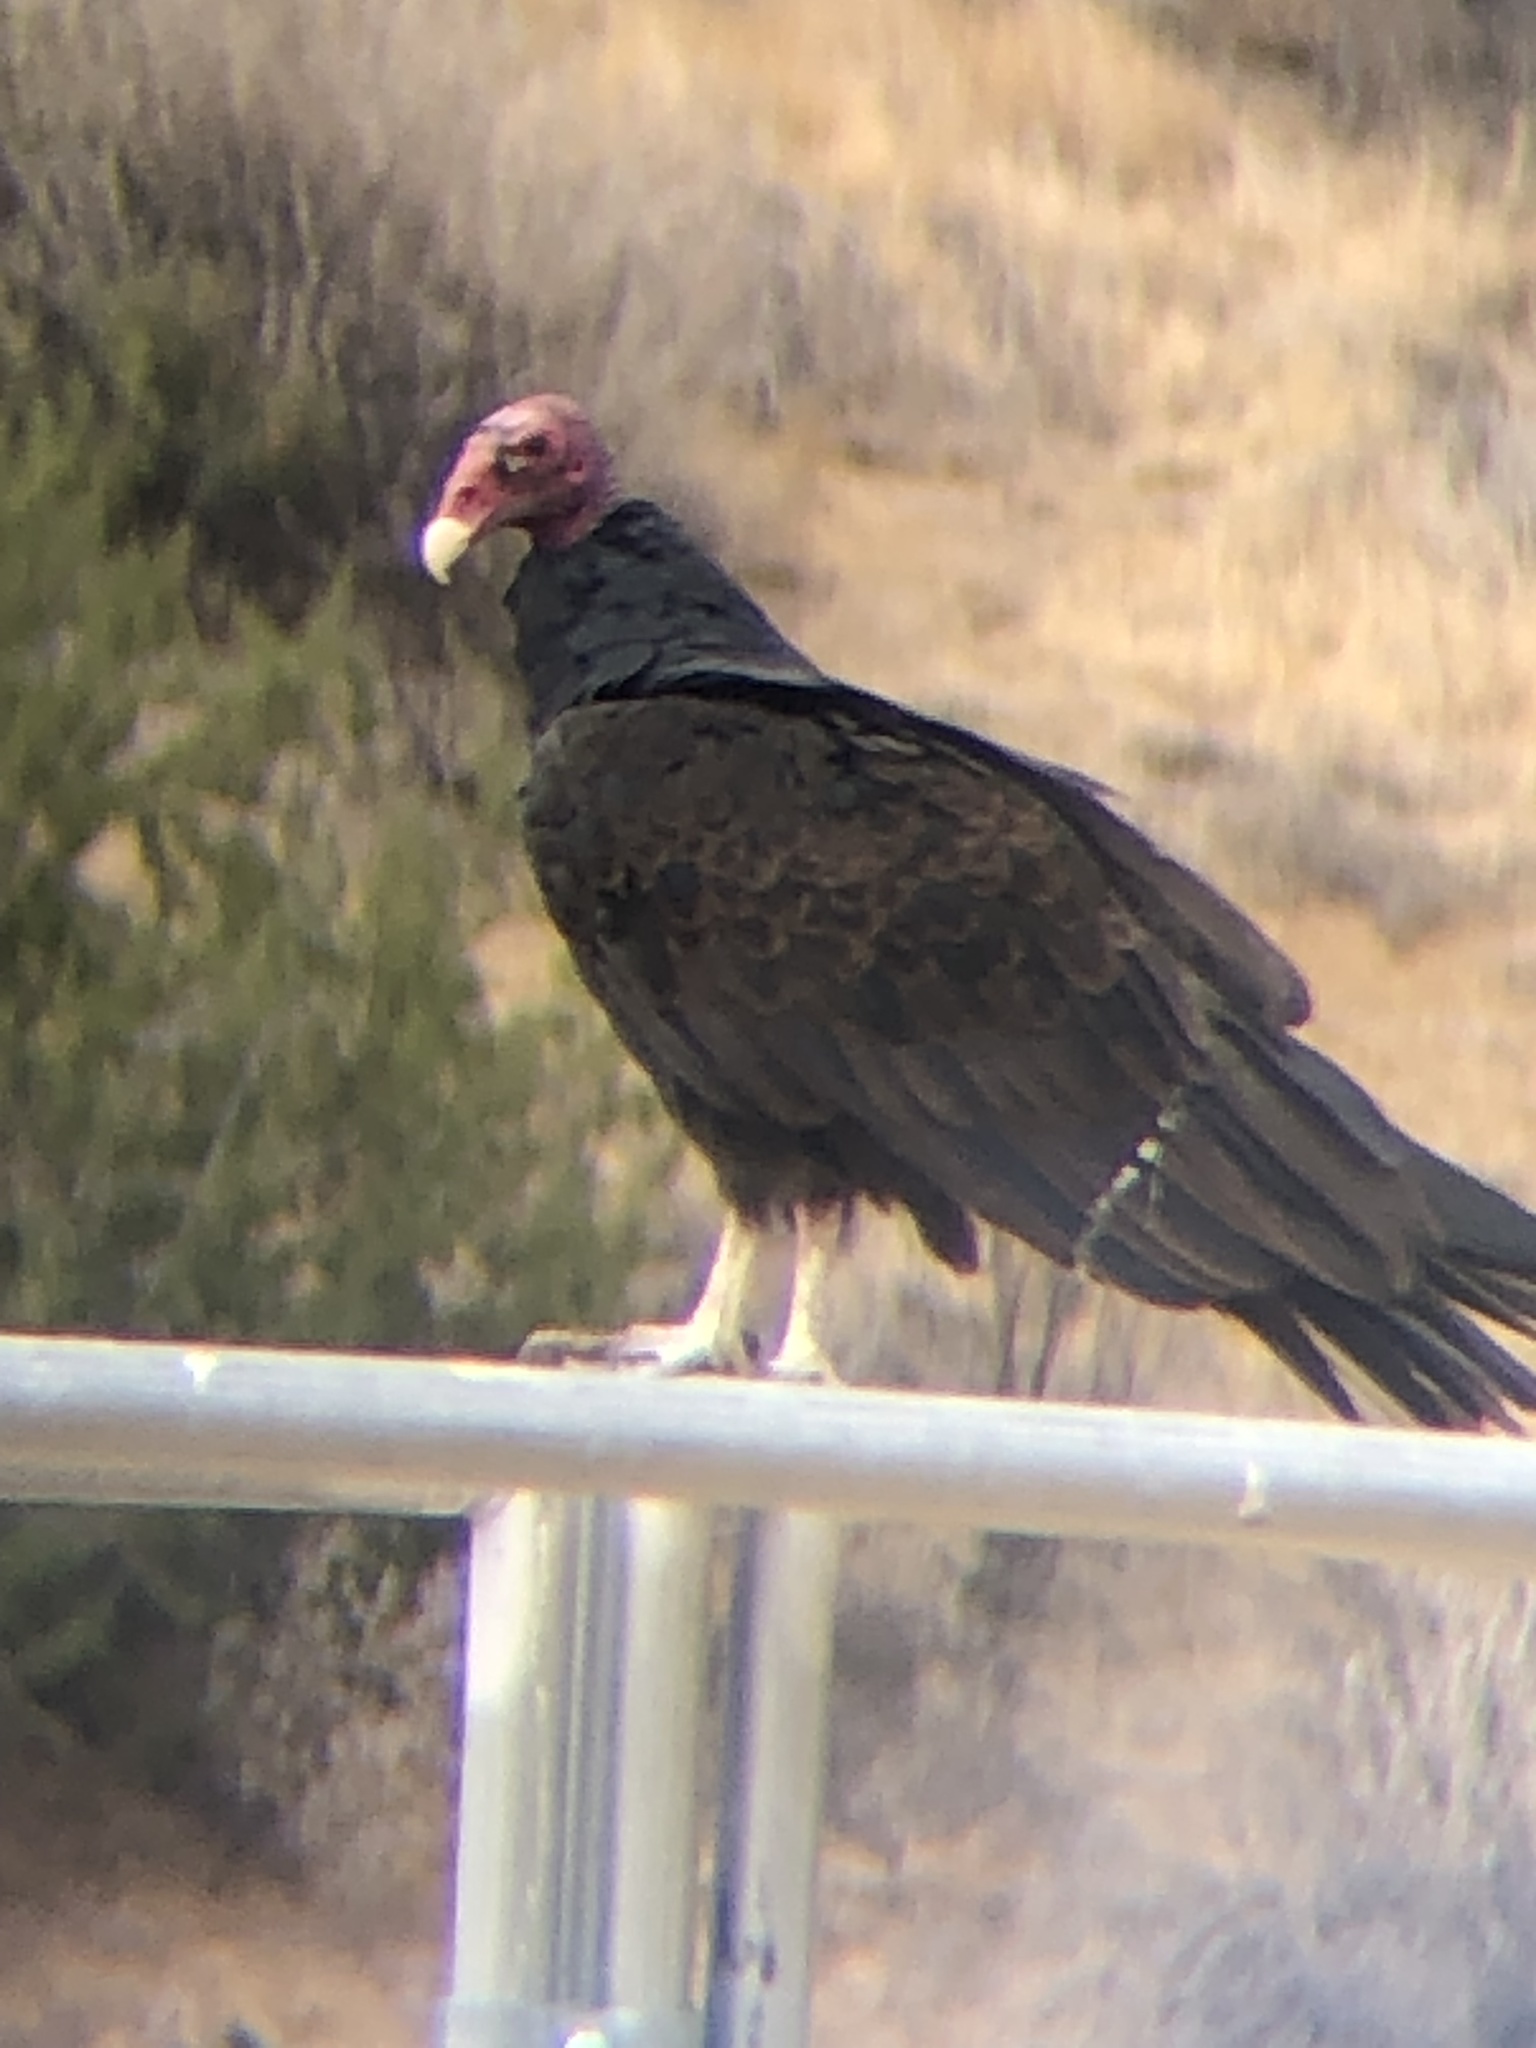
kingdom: Animalia
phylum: Chordata
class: Aves
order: Accipitriformes
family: Cathartidae
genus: Cathartes
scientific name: Cathartes aura
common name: Turkey vulture
